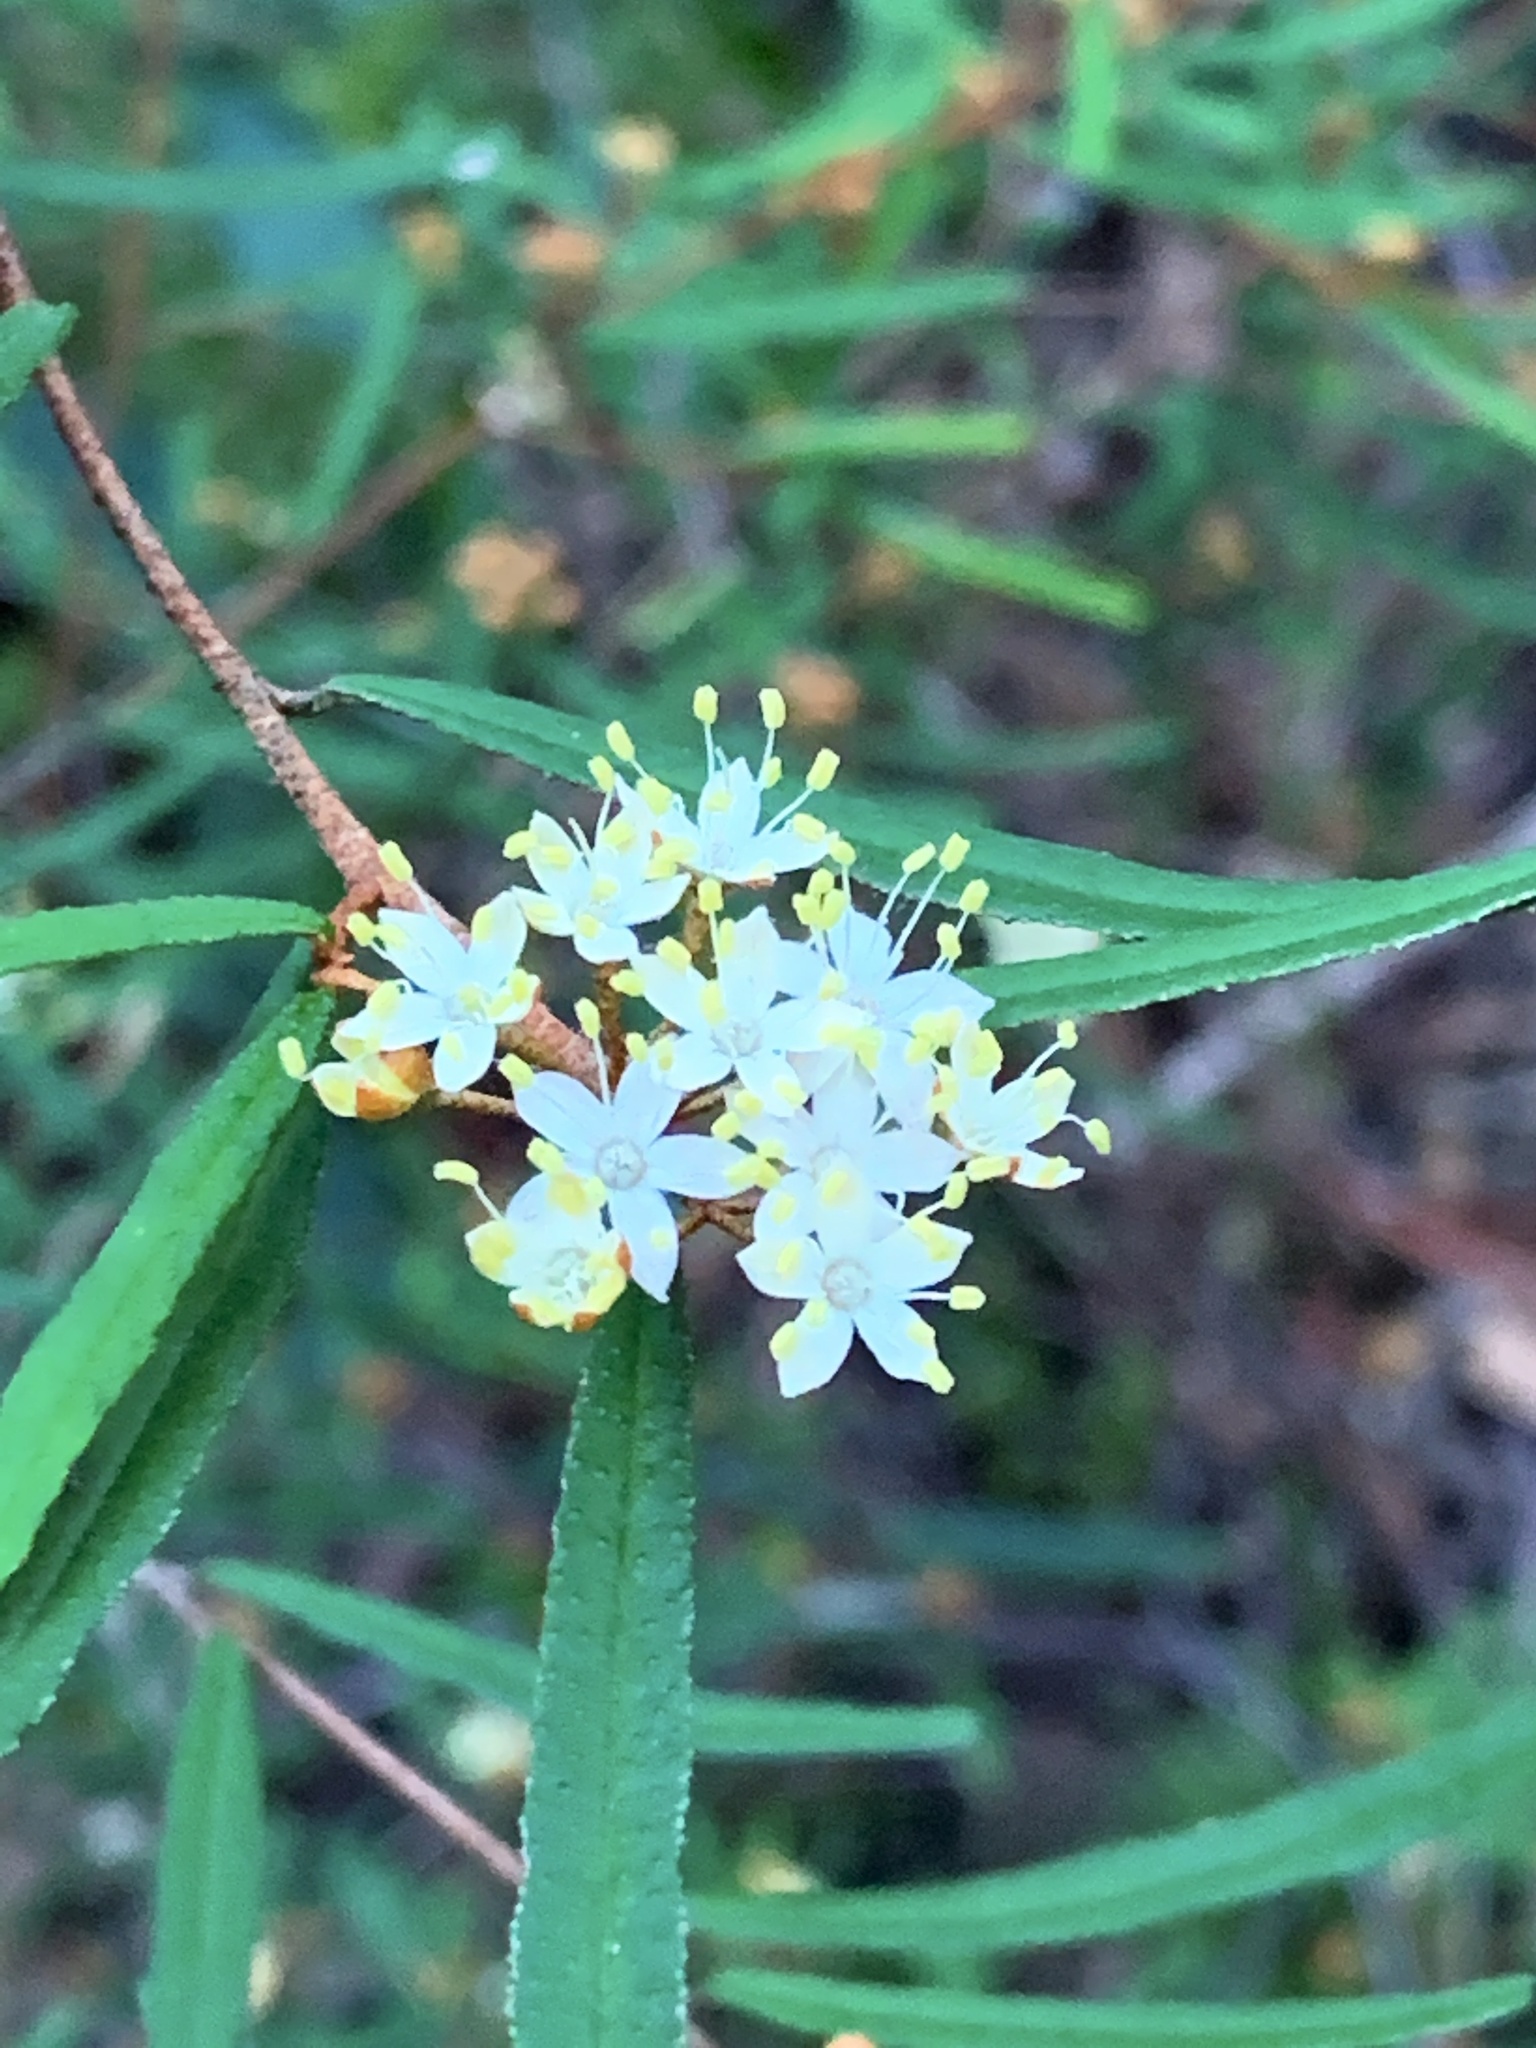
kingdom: Plantae
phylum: Tracheophyta
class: Magnoliopsida
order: Sapindales
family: Rutaceae
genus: Phebalium
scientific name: Phebalium squamulosum
